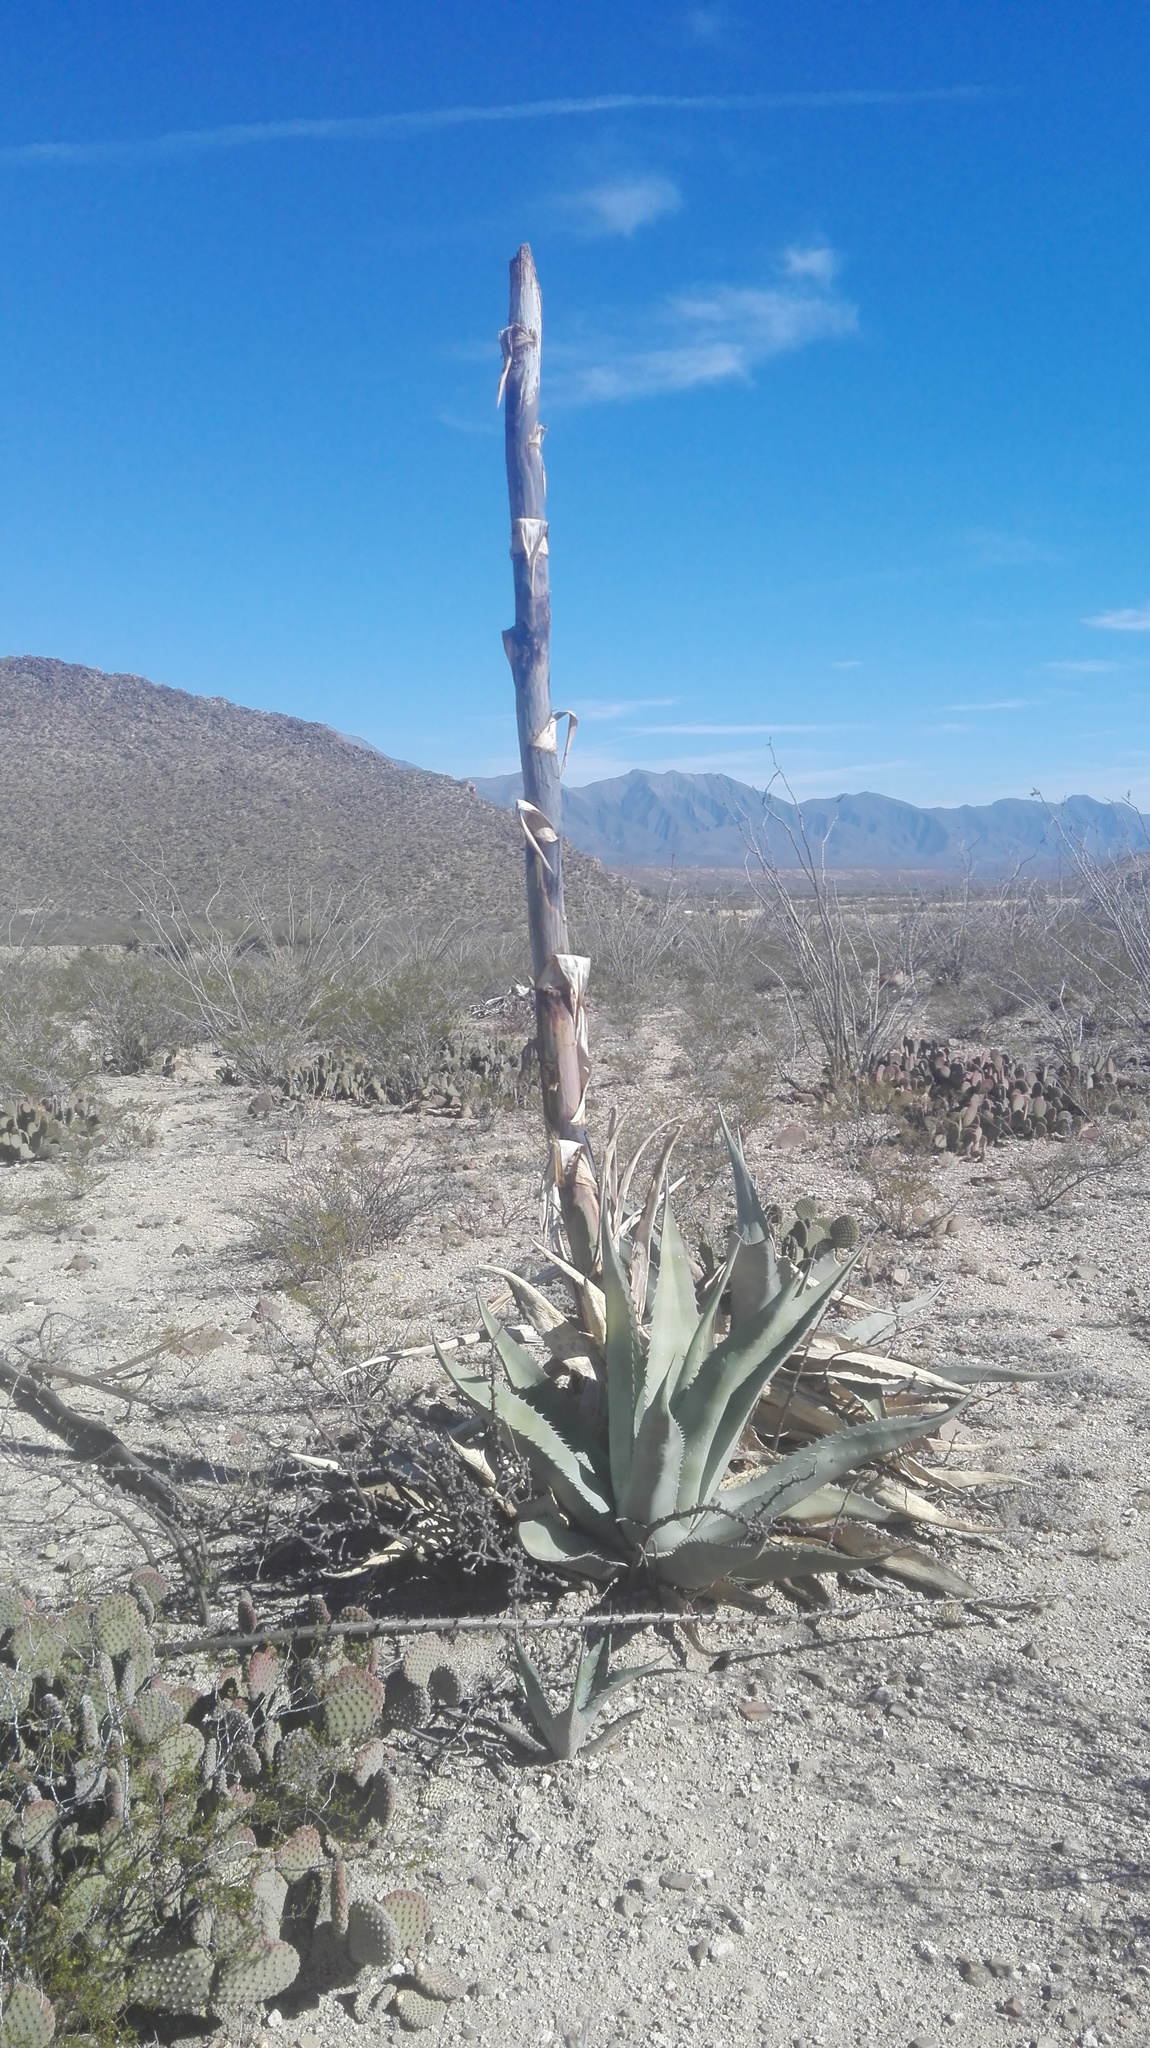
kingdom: Plantae
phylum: Tracheophyta
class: Liliopsida
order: Asparagales
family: Asparagaceae
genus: Agave
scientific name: Agave asperrima
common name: Rough agave
